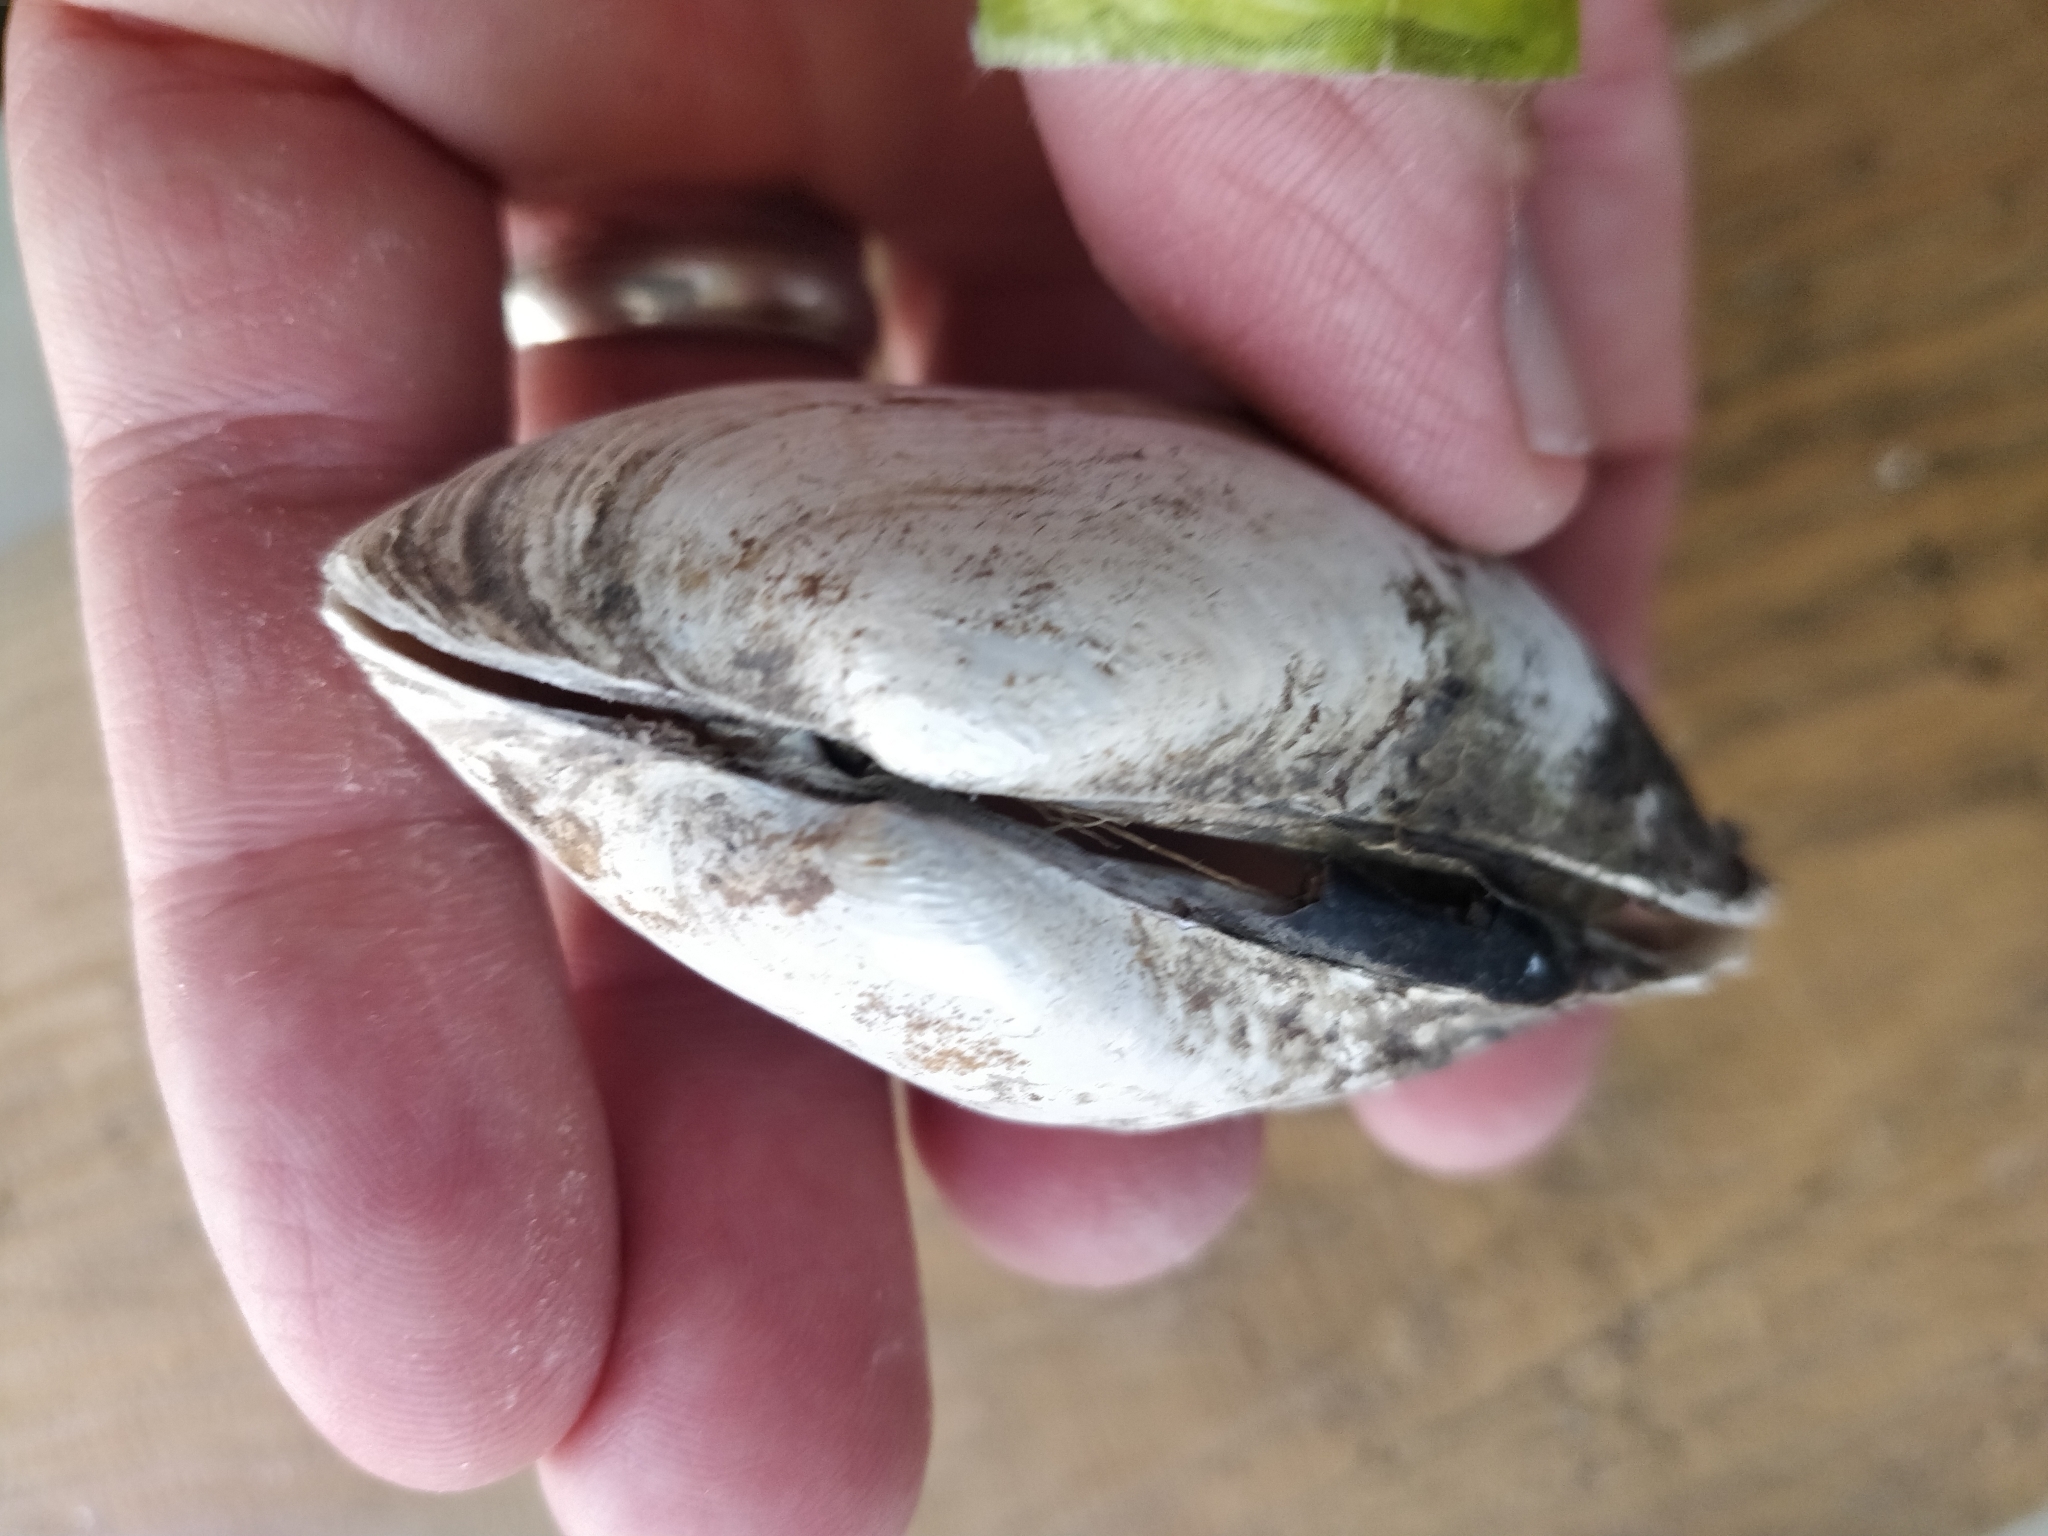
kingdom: Animalia
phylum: Mollusca
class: Bivalvia
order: Unionida
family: Unionidae
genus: Lampsilis
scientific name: Lampsilis siliquoidea
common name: Fatmucket
